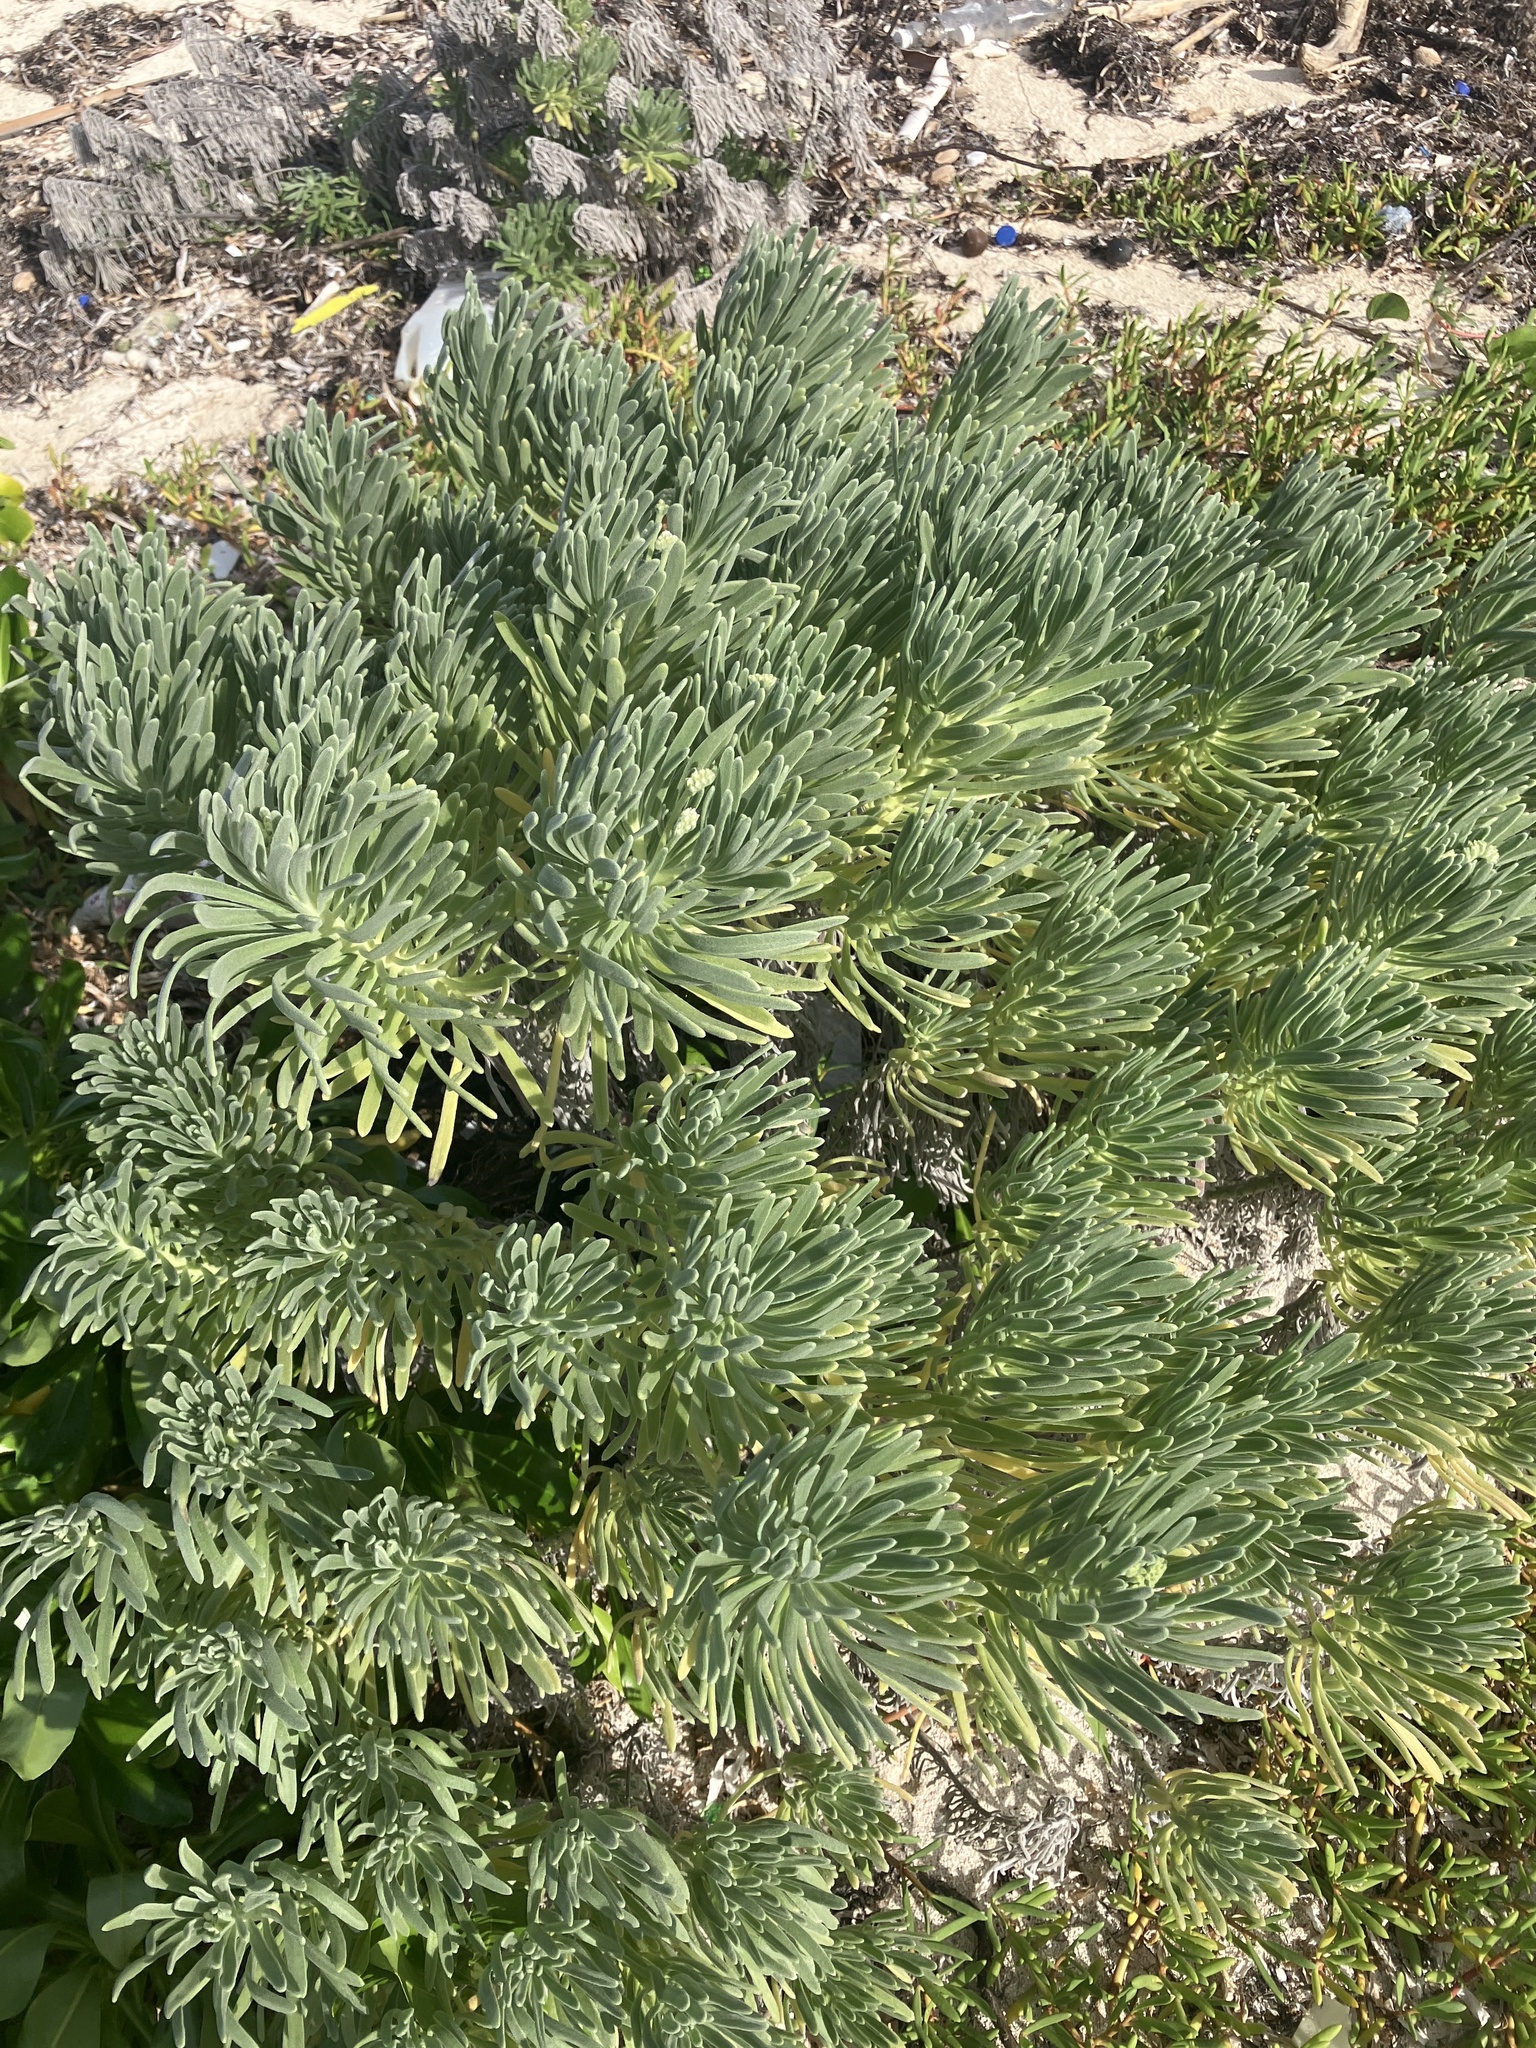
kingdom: Plantae
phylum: Tracheophyta
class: Magnoliopsida
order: Boraginales
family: Heliotropiaceae
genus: Tournefortia
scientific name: Tournefortia gnaphalodes
